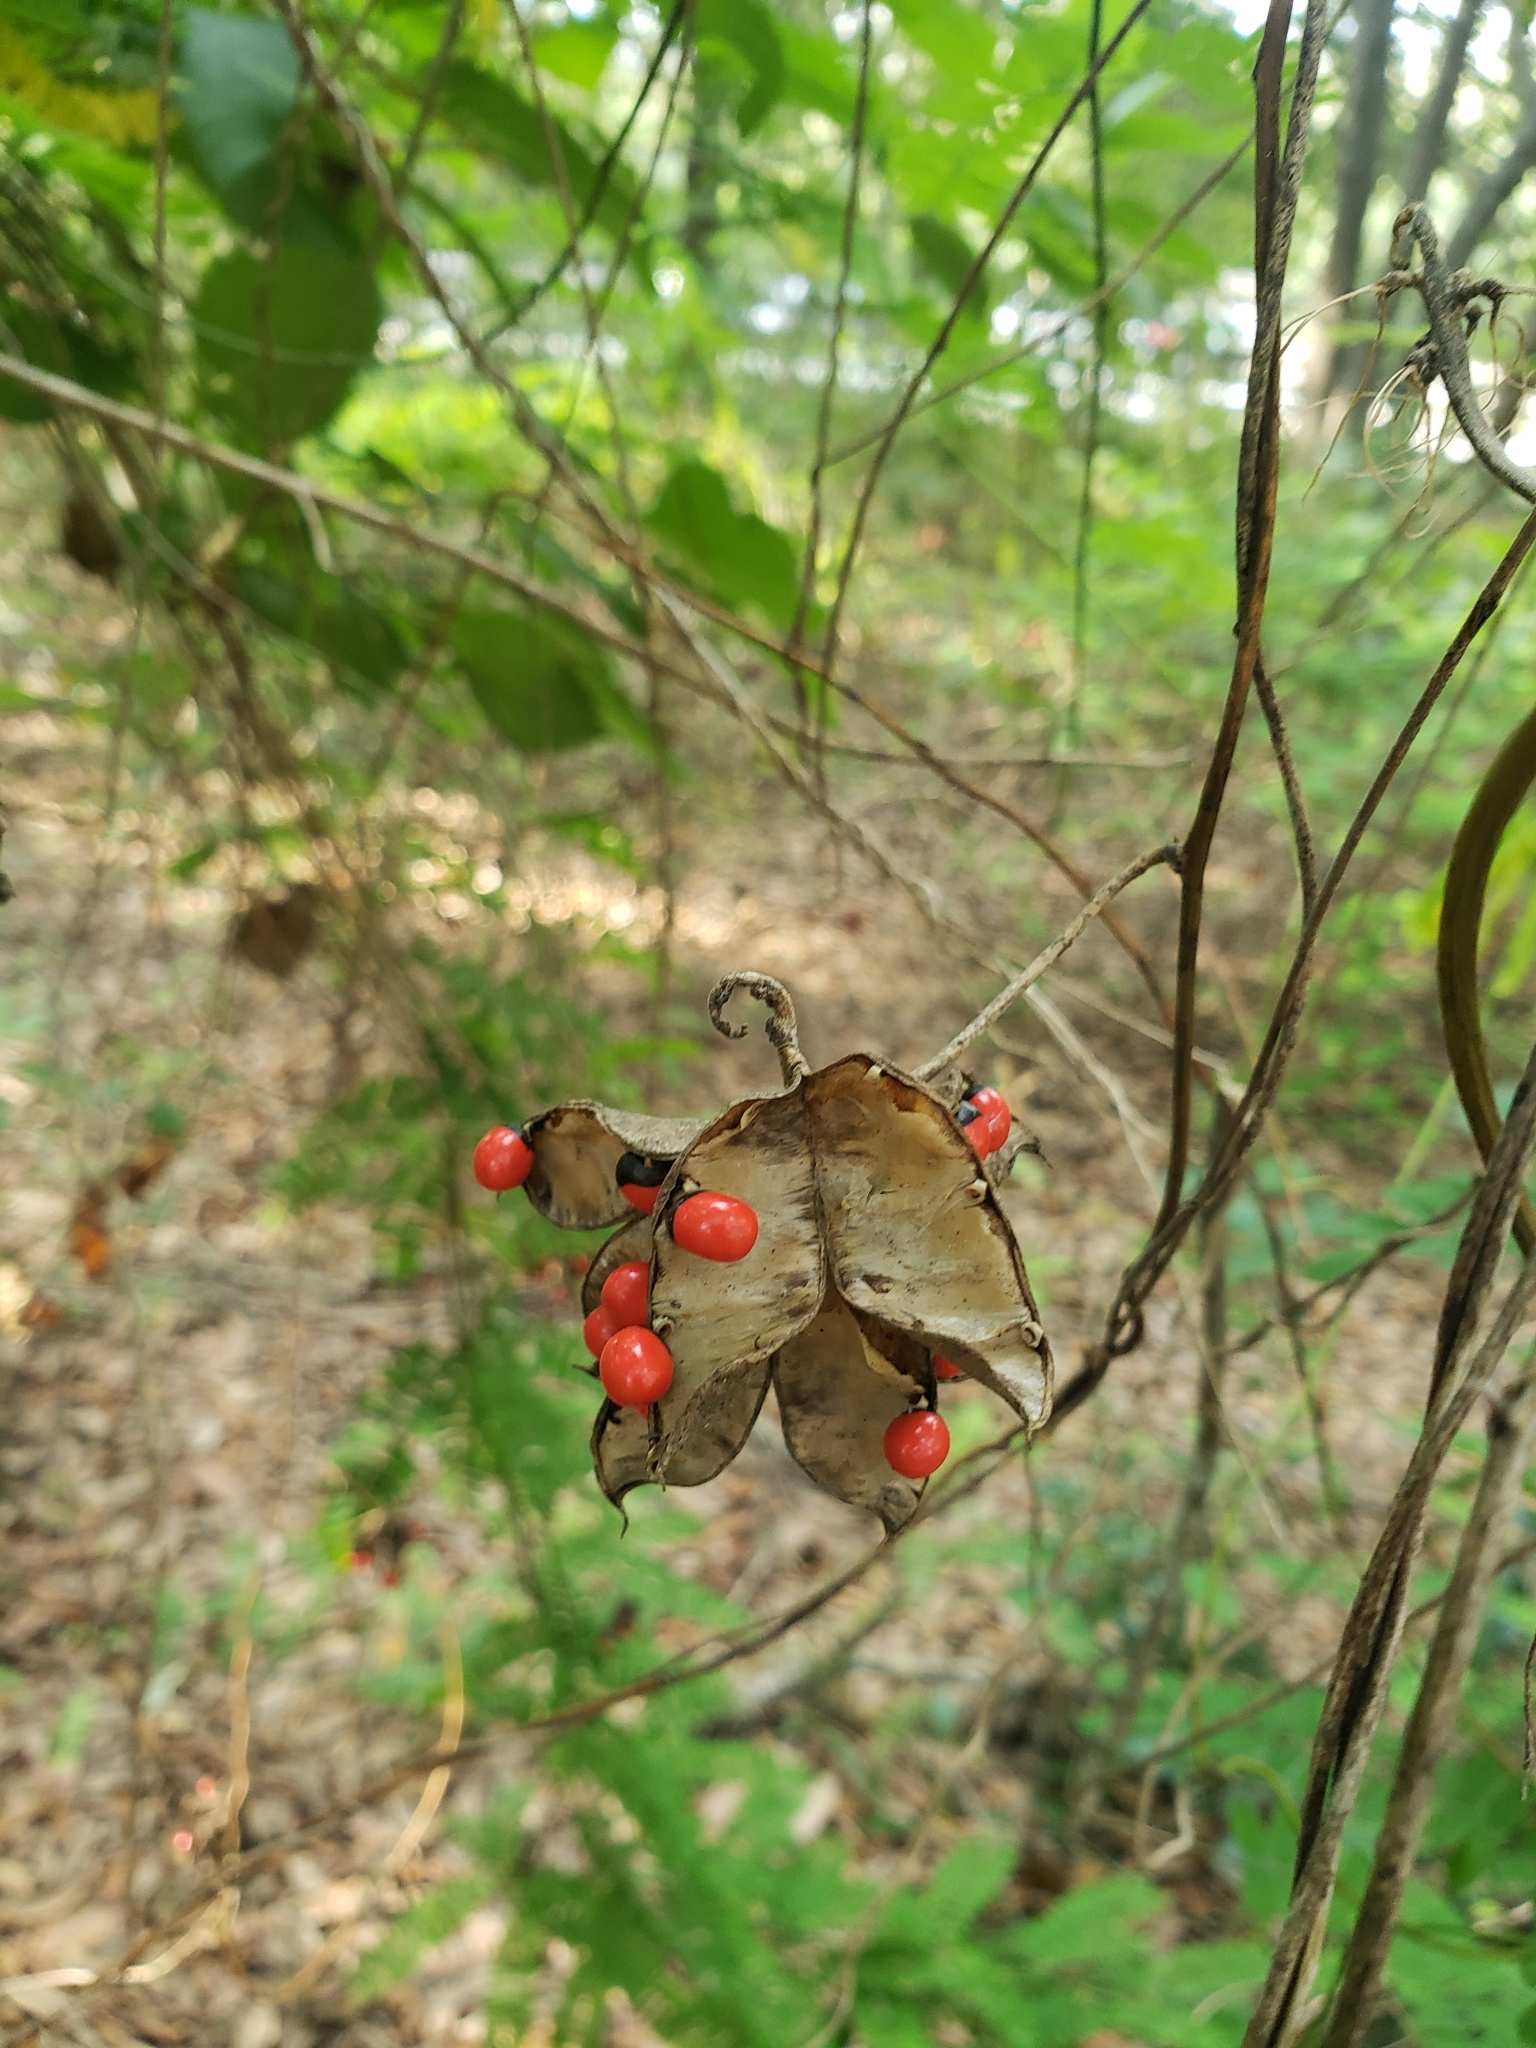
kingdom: Plantae
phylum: Tracheophyta
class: Magnoliopsida
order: Fabales
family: Fabaceae
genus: Abrus
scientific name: Abrus precatorius
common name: Rosarypea
